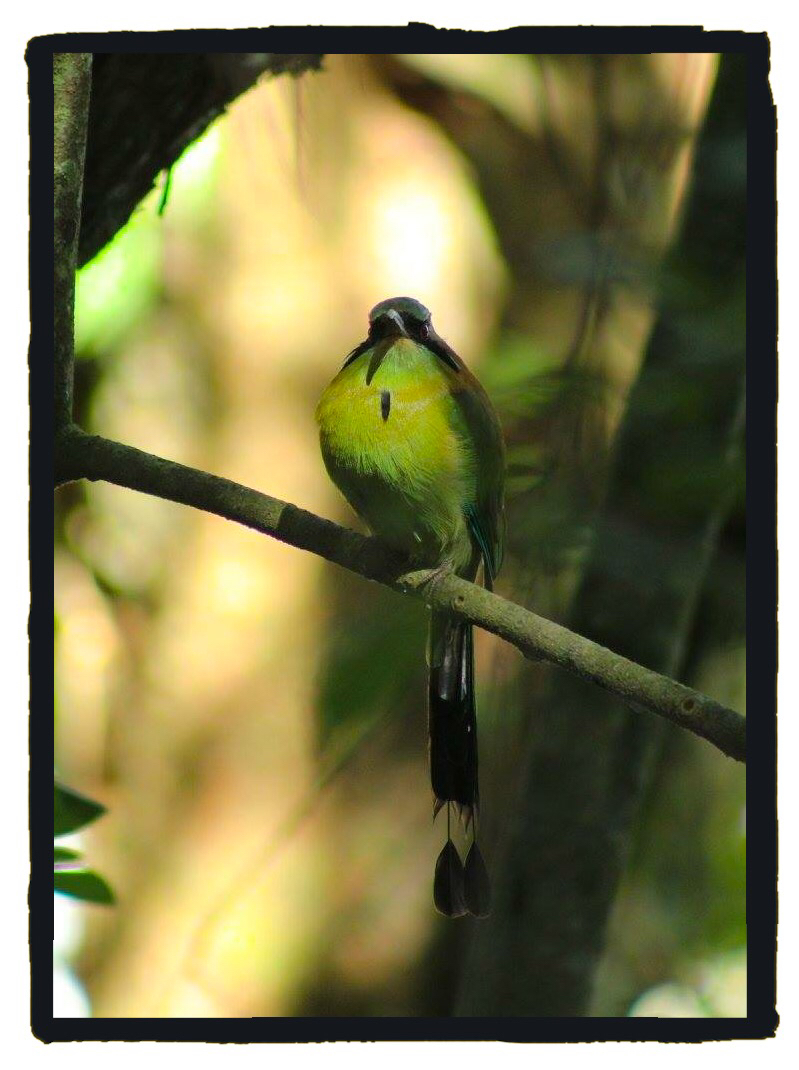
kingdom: Animalia
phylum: Chordata
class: Aves
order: Coraciiformes
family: Momotidae
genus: Momotus
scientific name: Momotus coeruliceps
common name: Blue-capped motmot
